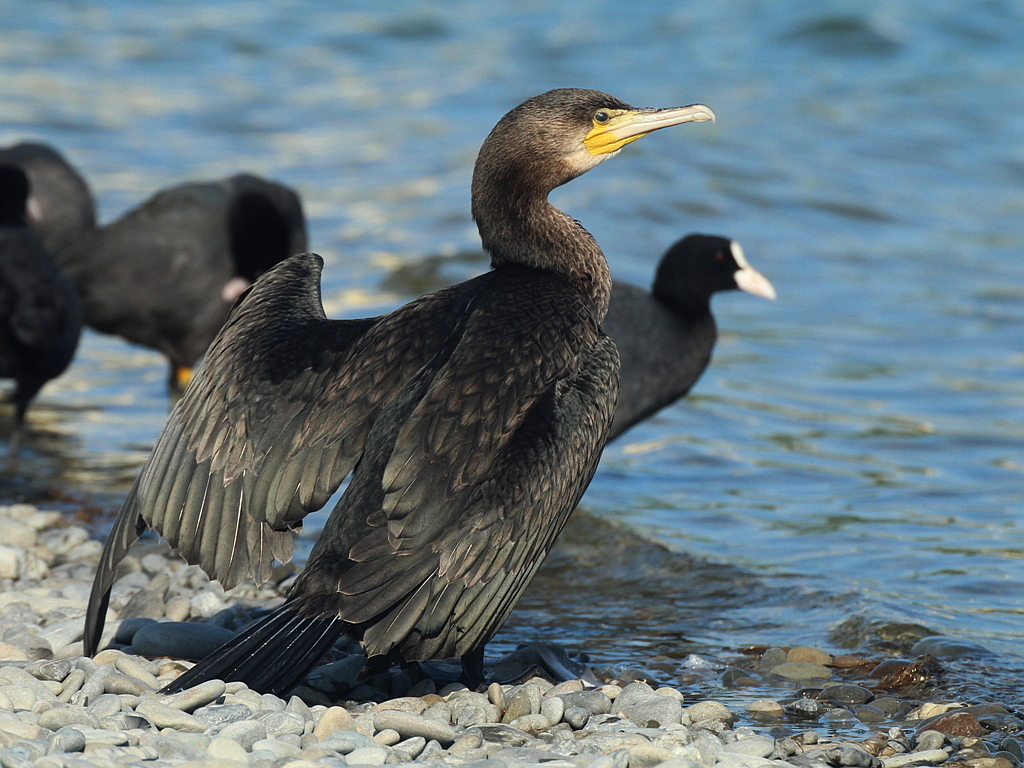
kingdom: Animalia
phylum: Chordata
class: Aves
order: Suliformes
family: Phalacrocoracidae
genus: Phalacrocorax
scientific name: Phalacrocorax carbo
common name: Great cormorant
